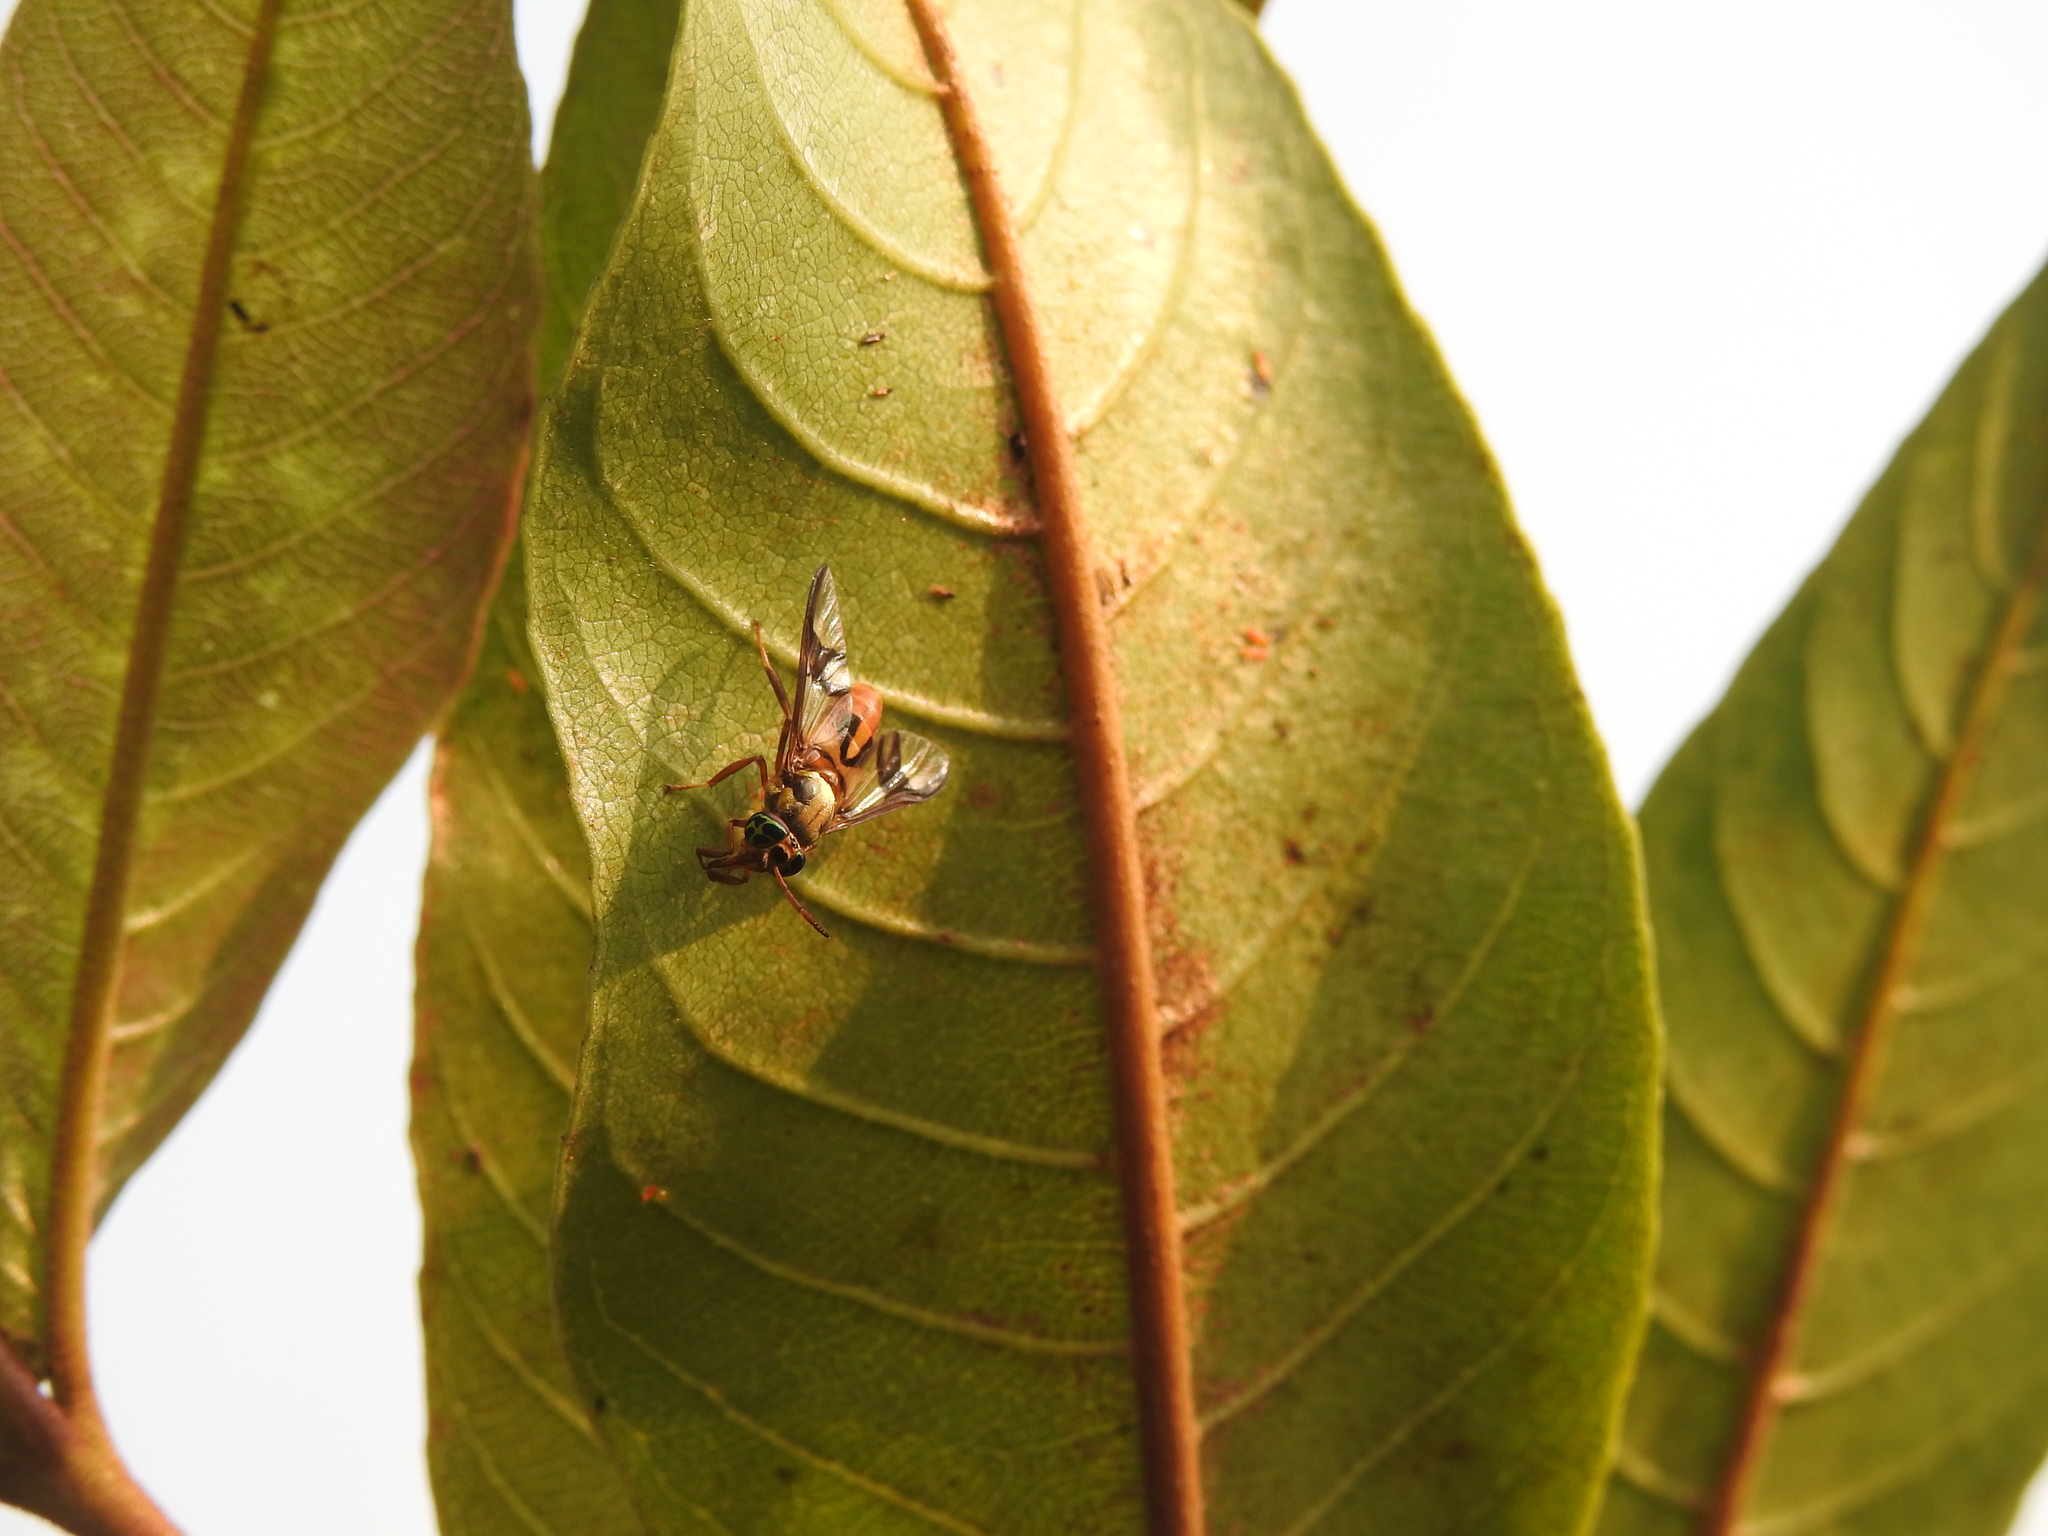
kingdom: Animalia
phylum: Arthropoda
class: Insecta
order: Diptera
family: Tabanidae
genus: Chrysops
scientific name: Chrysops dispar
